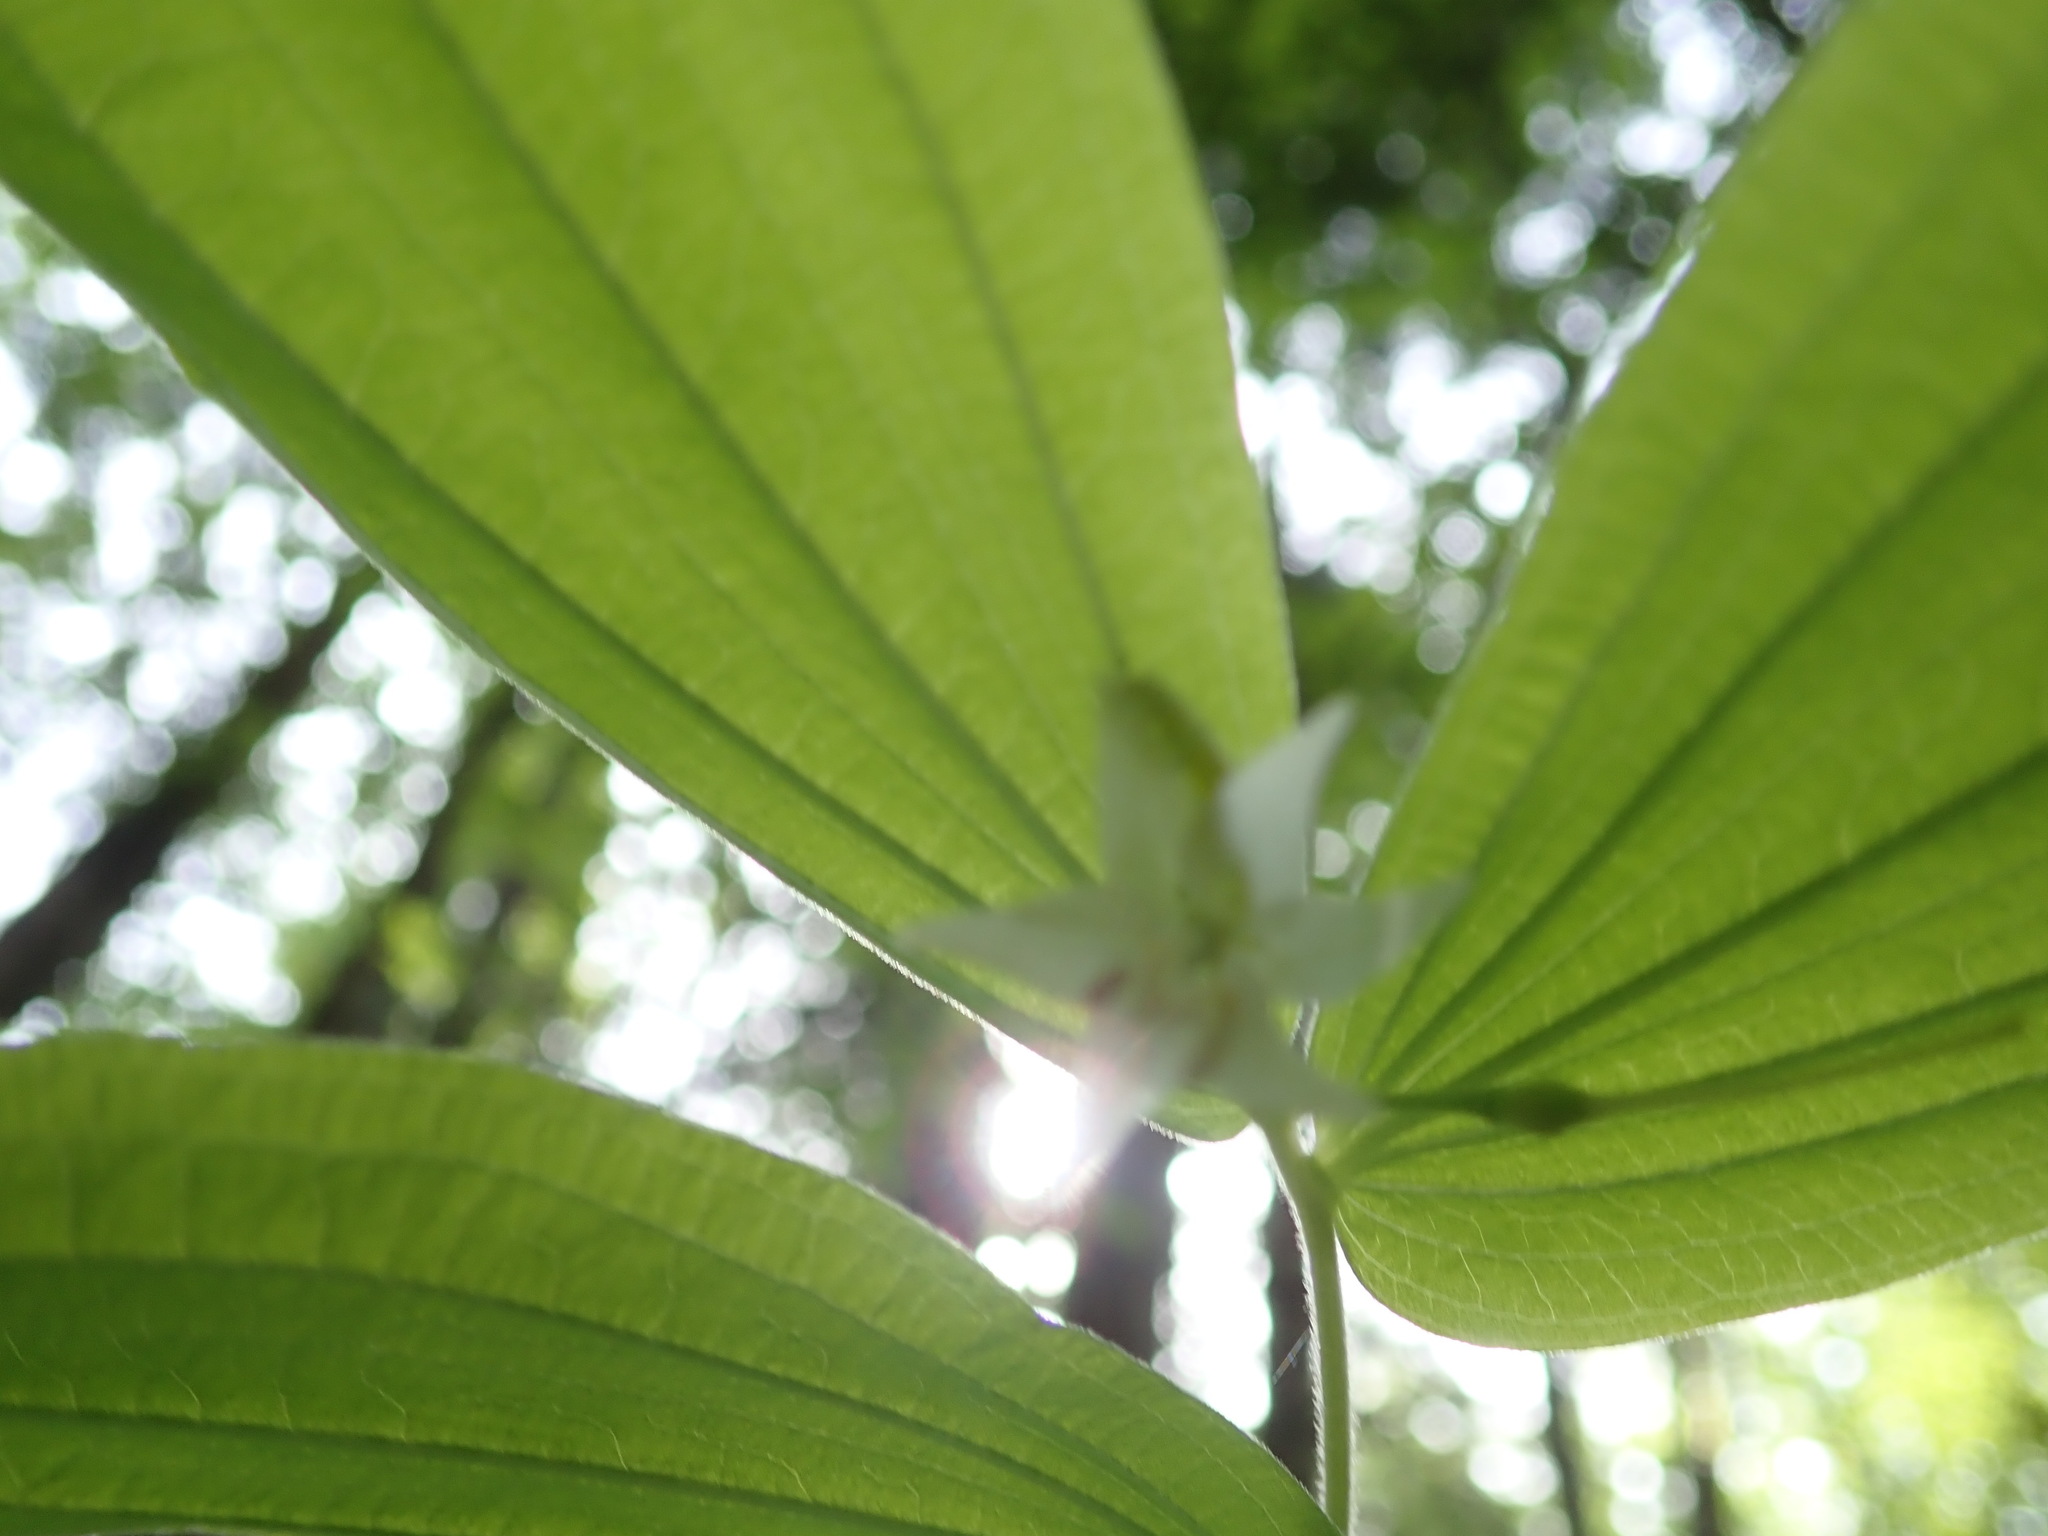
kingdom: Plantae
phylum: Tracheophyta
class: Liliopsida
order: Liliales
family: Liliaceae
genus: Prosartes
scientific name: Prosartes hookeri
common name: Fairy-bells
